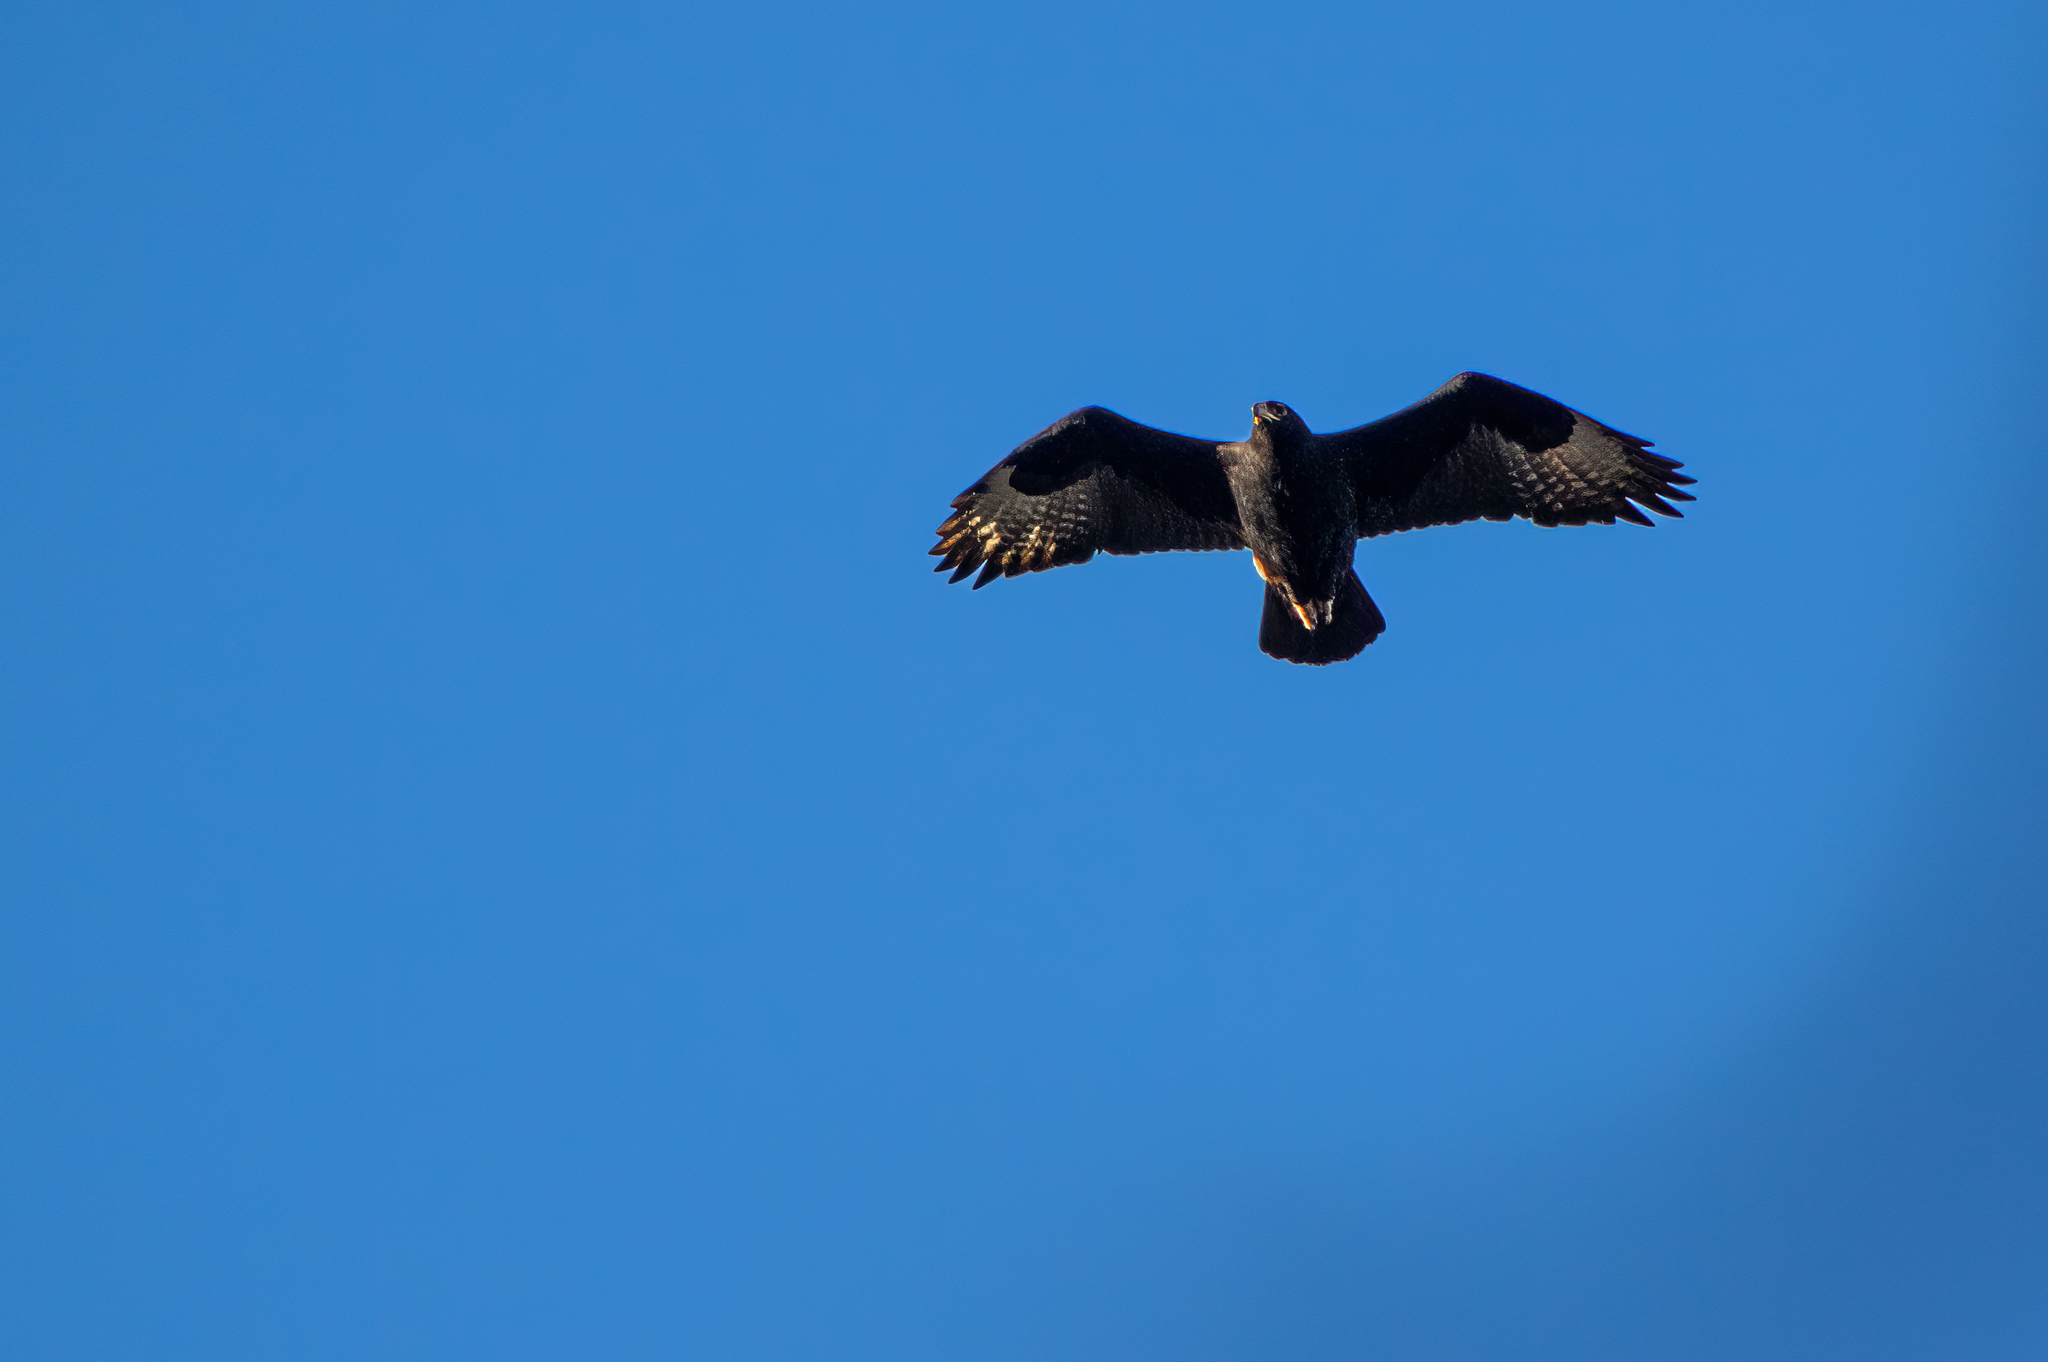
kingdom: Animalia
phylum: Chordata
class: Aves
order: Accipitriformes
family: Accipitridae
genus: Aquila
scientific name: Aquila verreauxii
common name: Verreaux's eagle
